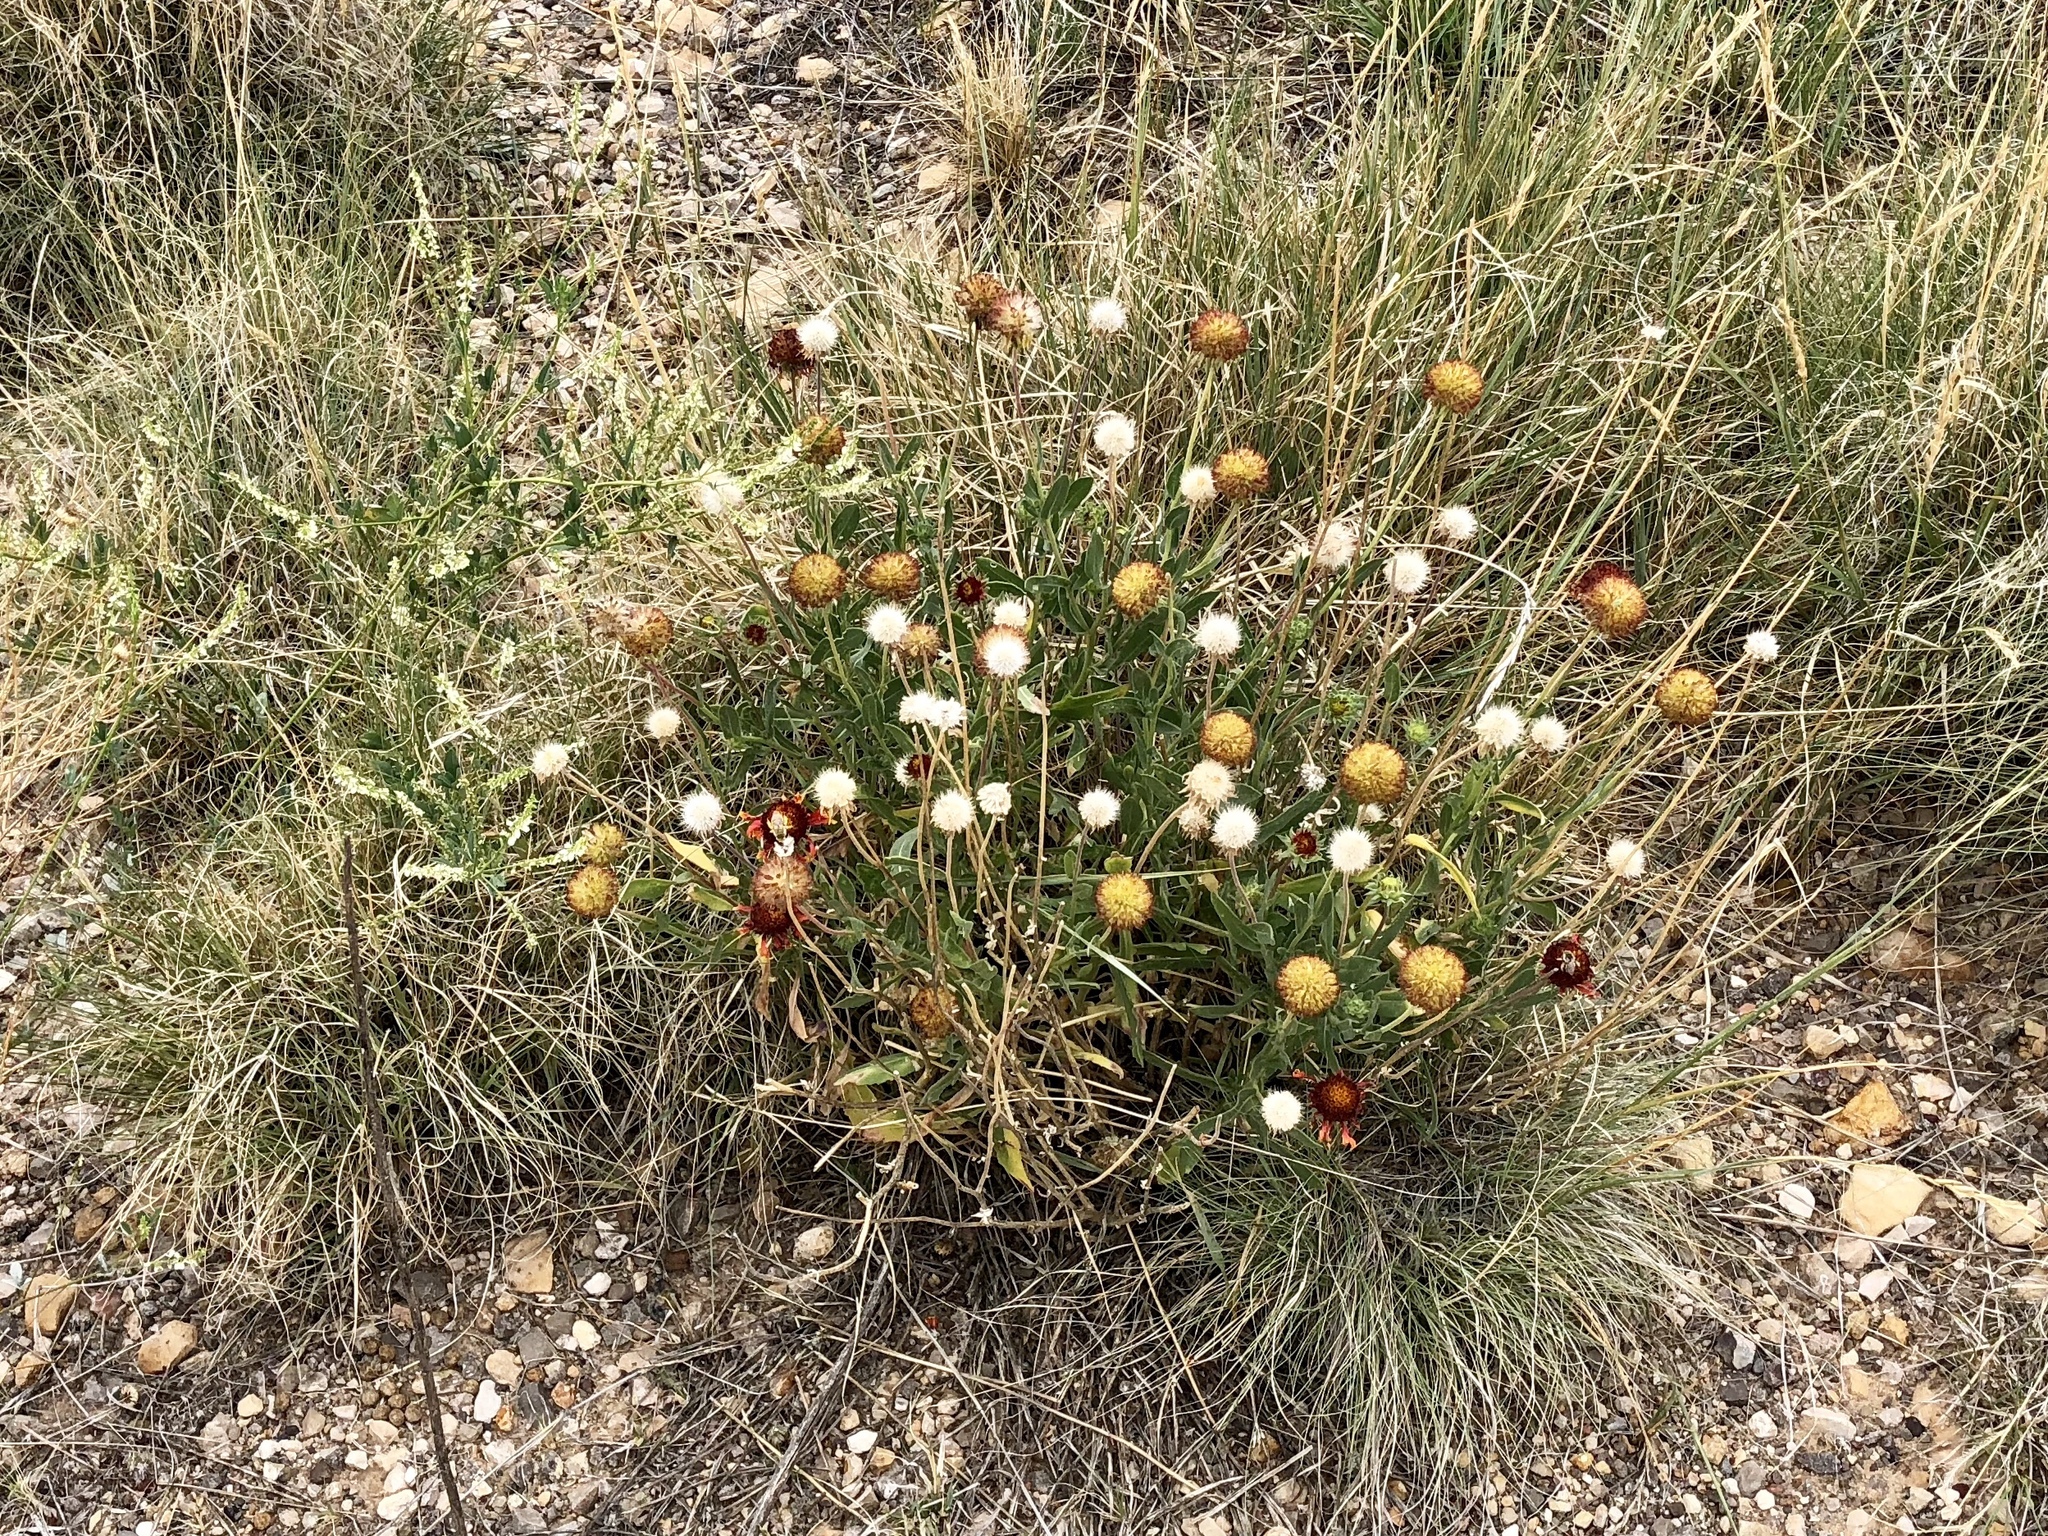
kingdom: Plantae
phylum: Tracheophyta
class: Magnoliopsida
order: Asterales
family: Asteraceae
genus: Gaillardia
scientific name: Gaillardia pulchella
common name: Firewheel
